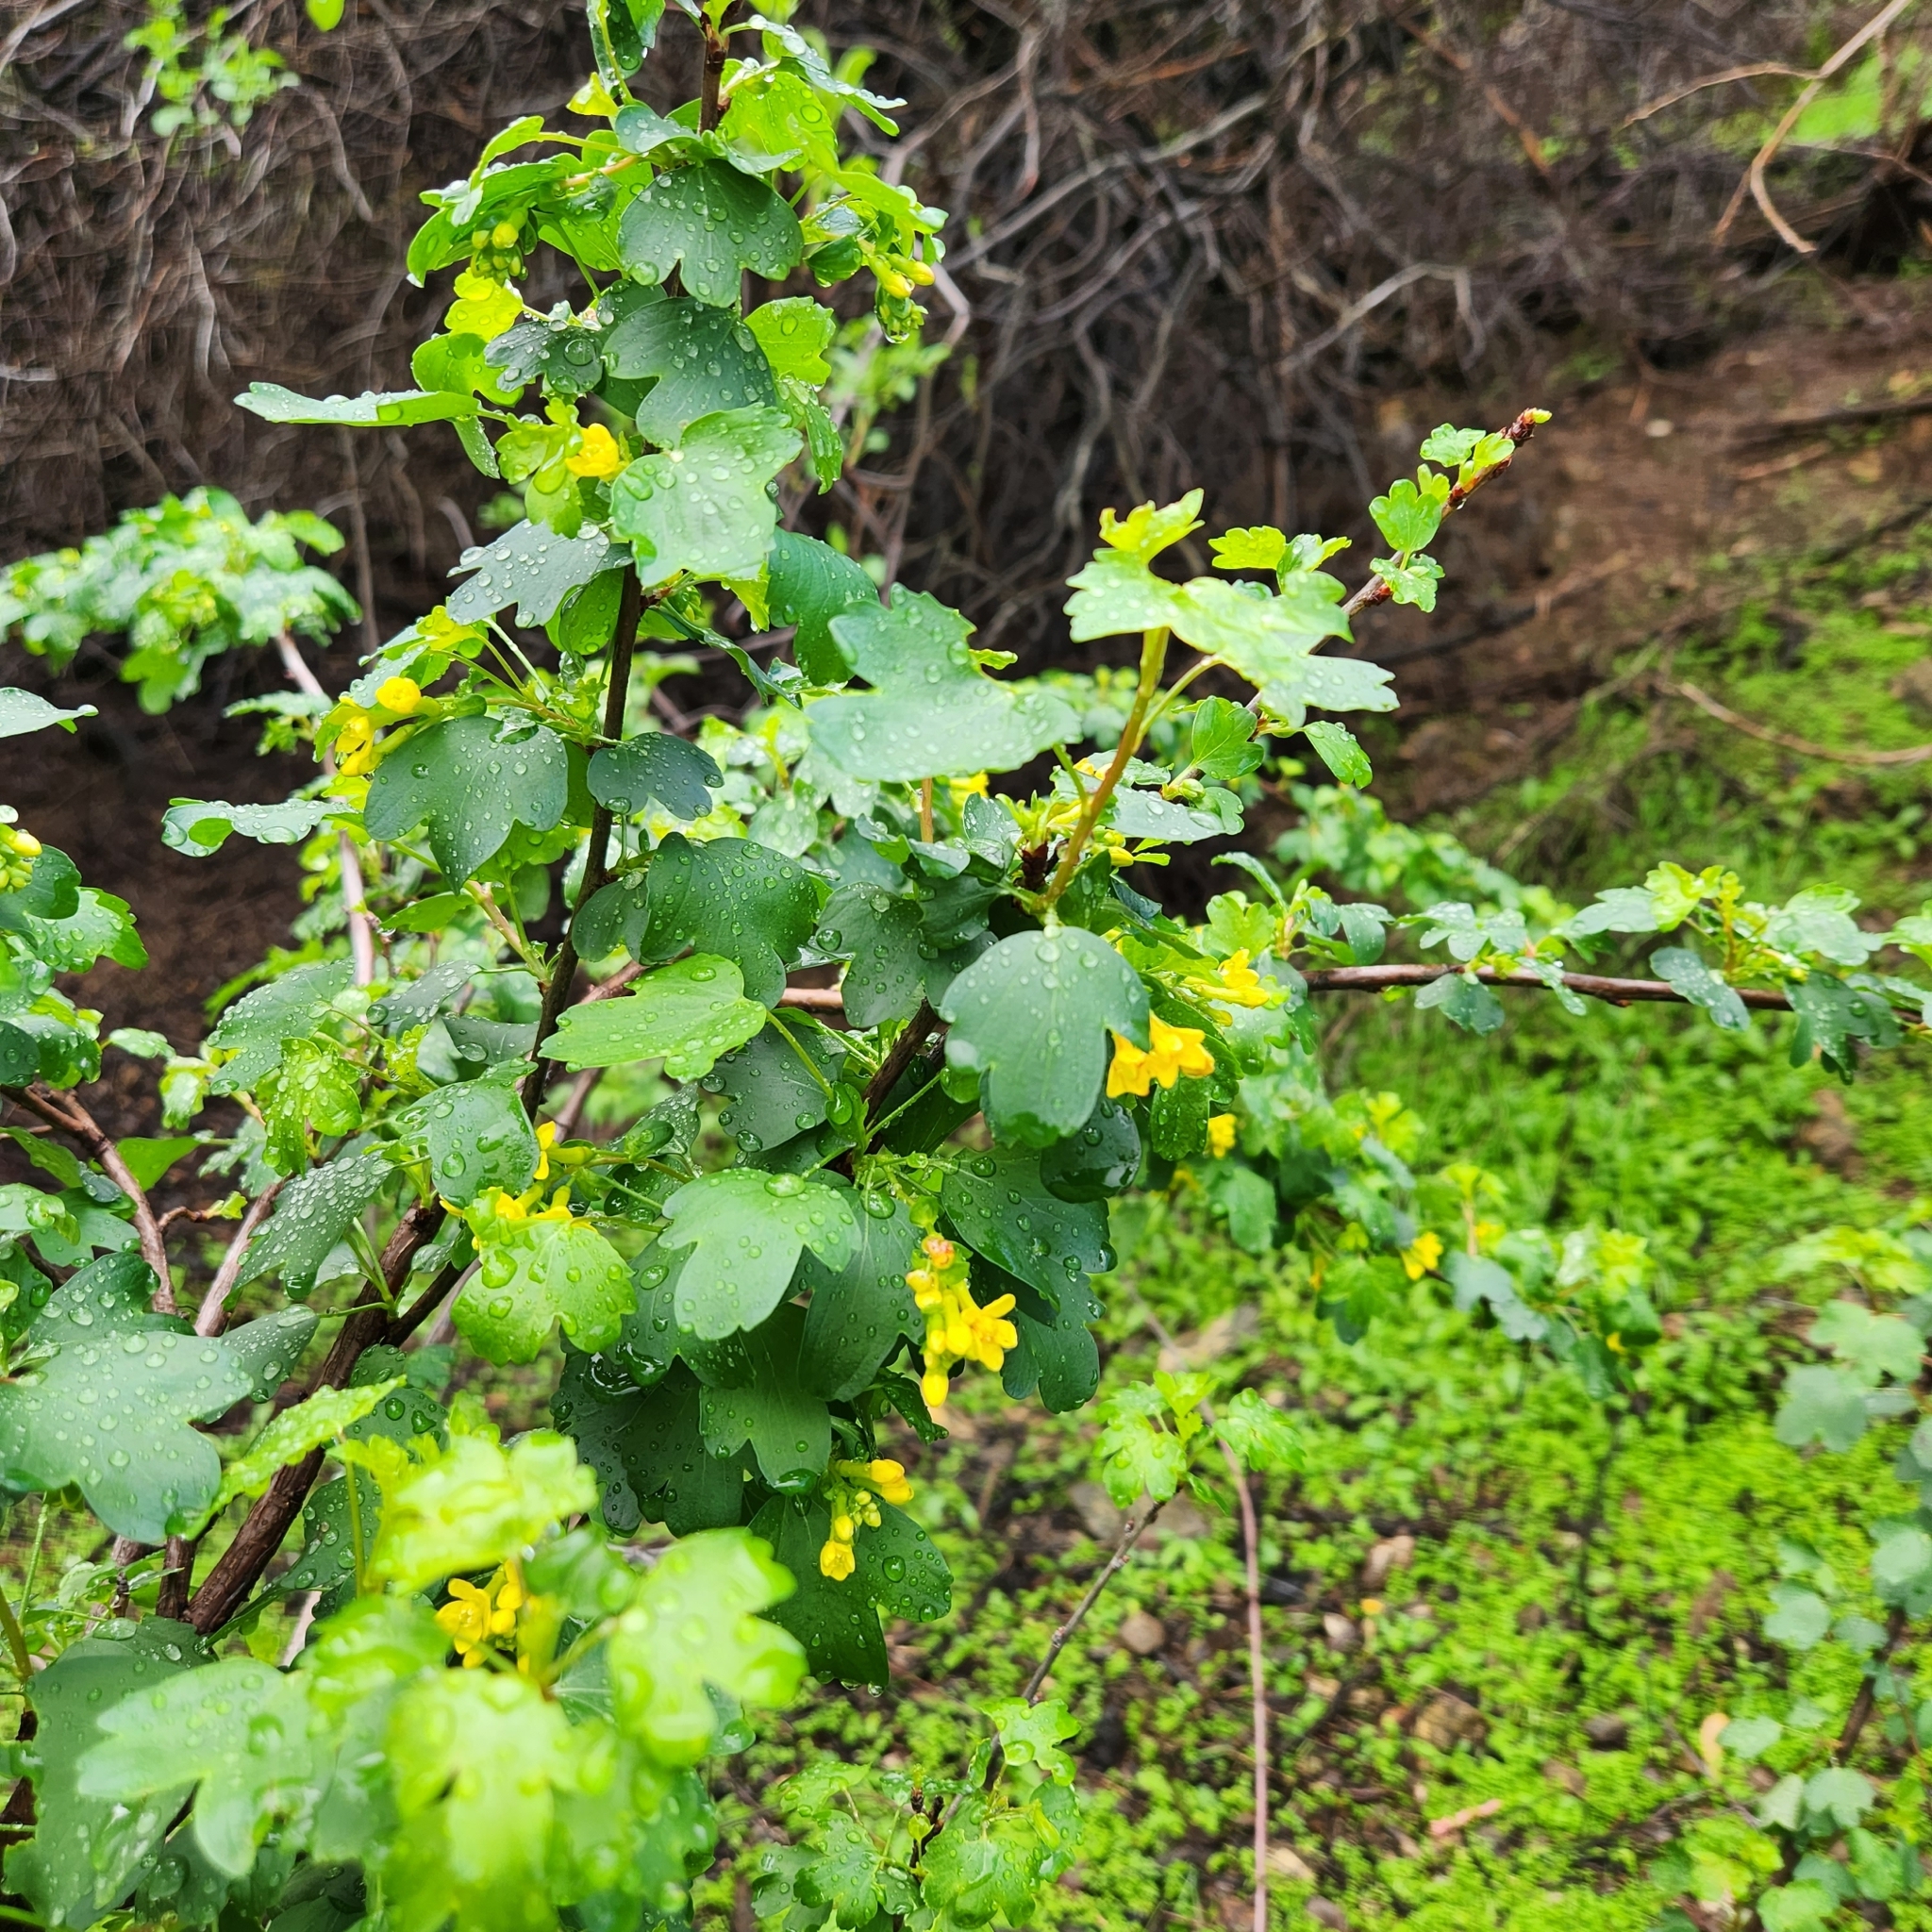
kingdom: Plantae
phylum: Tracheophyta
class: Magnoliopsida
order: Saxifragales
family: Grossulariaceae
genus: Ribes
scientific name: Ribes aureum
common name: Golden currant
